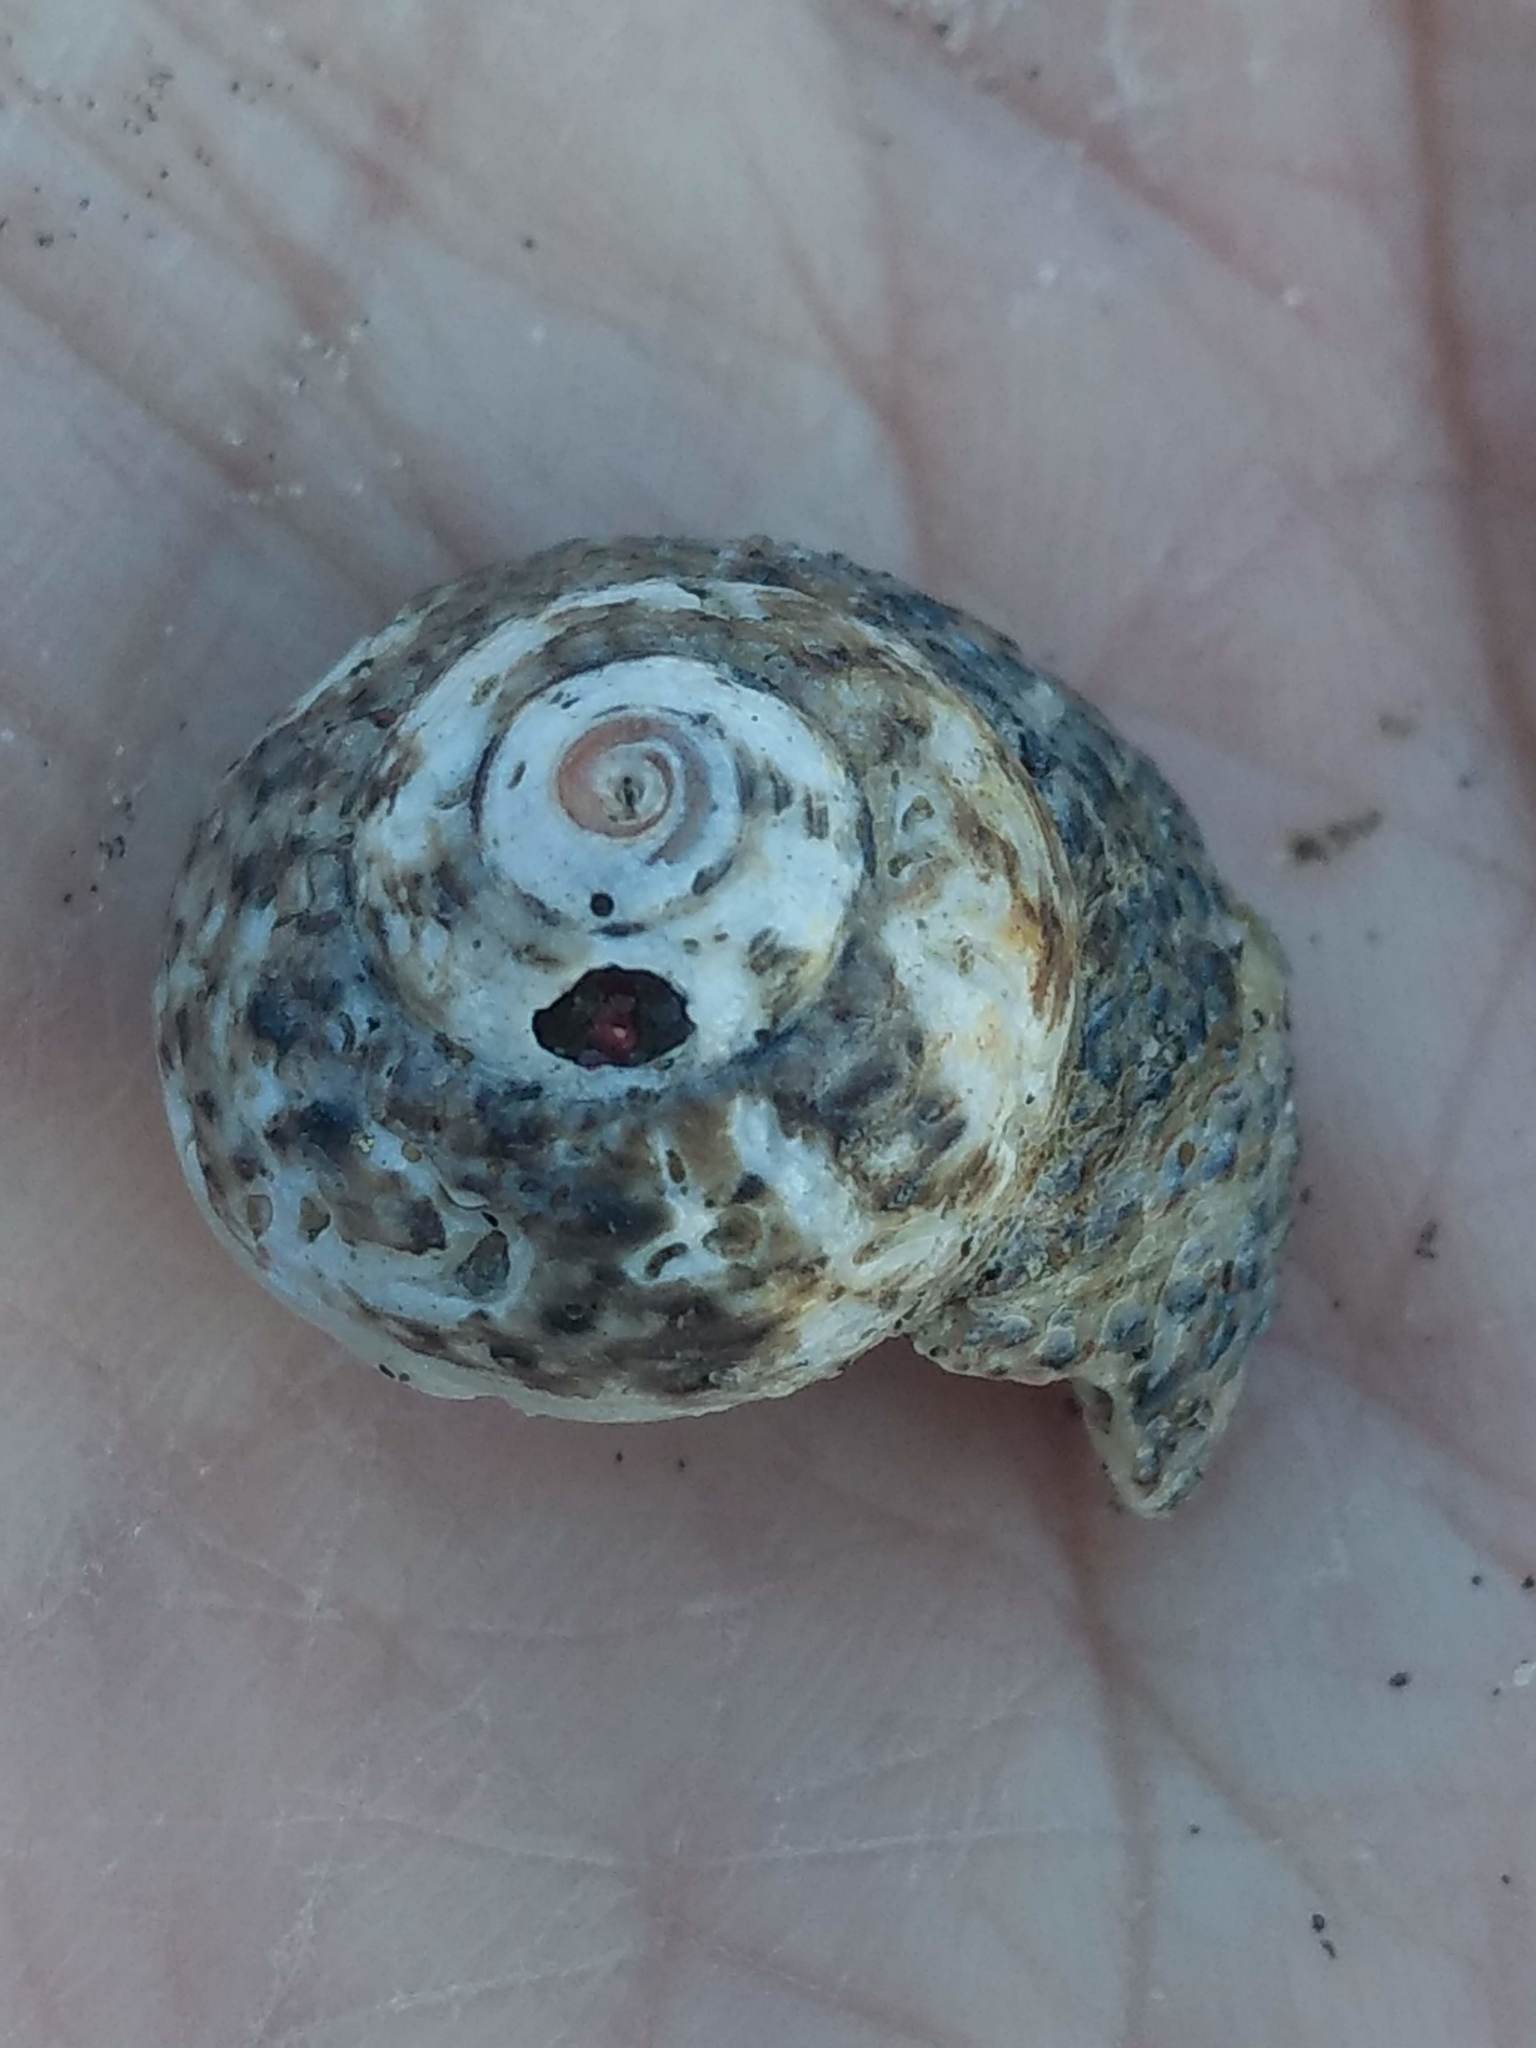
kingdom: Animalia
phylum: Mollusca
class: Gastropoda
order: Trochida
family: Tegulidae
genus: Tegula
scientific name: Tegula eiseni
